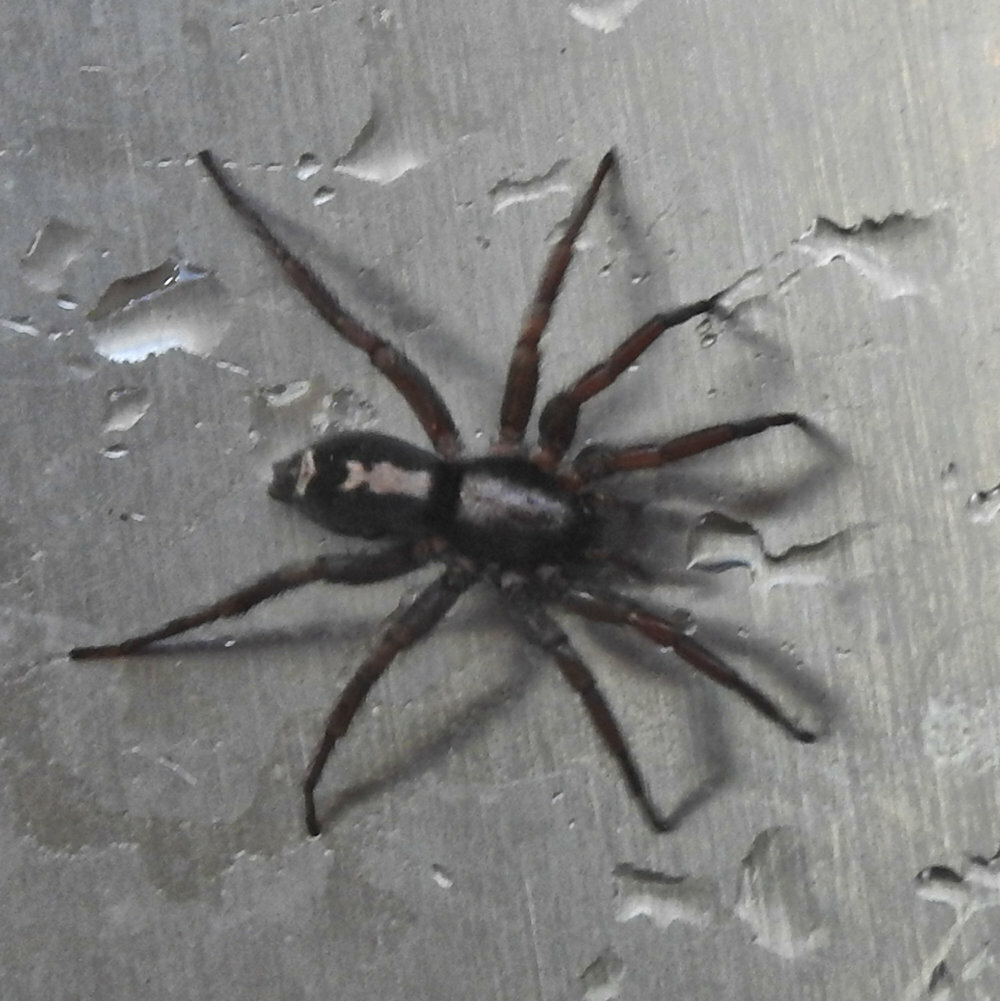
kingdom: Animalia
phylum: Arthropoda
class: Arachnida
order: Araneae
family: Gnaphosidae
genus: Herpyllus
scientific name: Herpyllus ecclesiasticus
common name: Eastern parson spider
